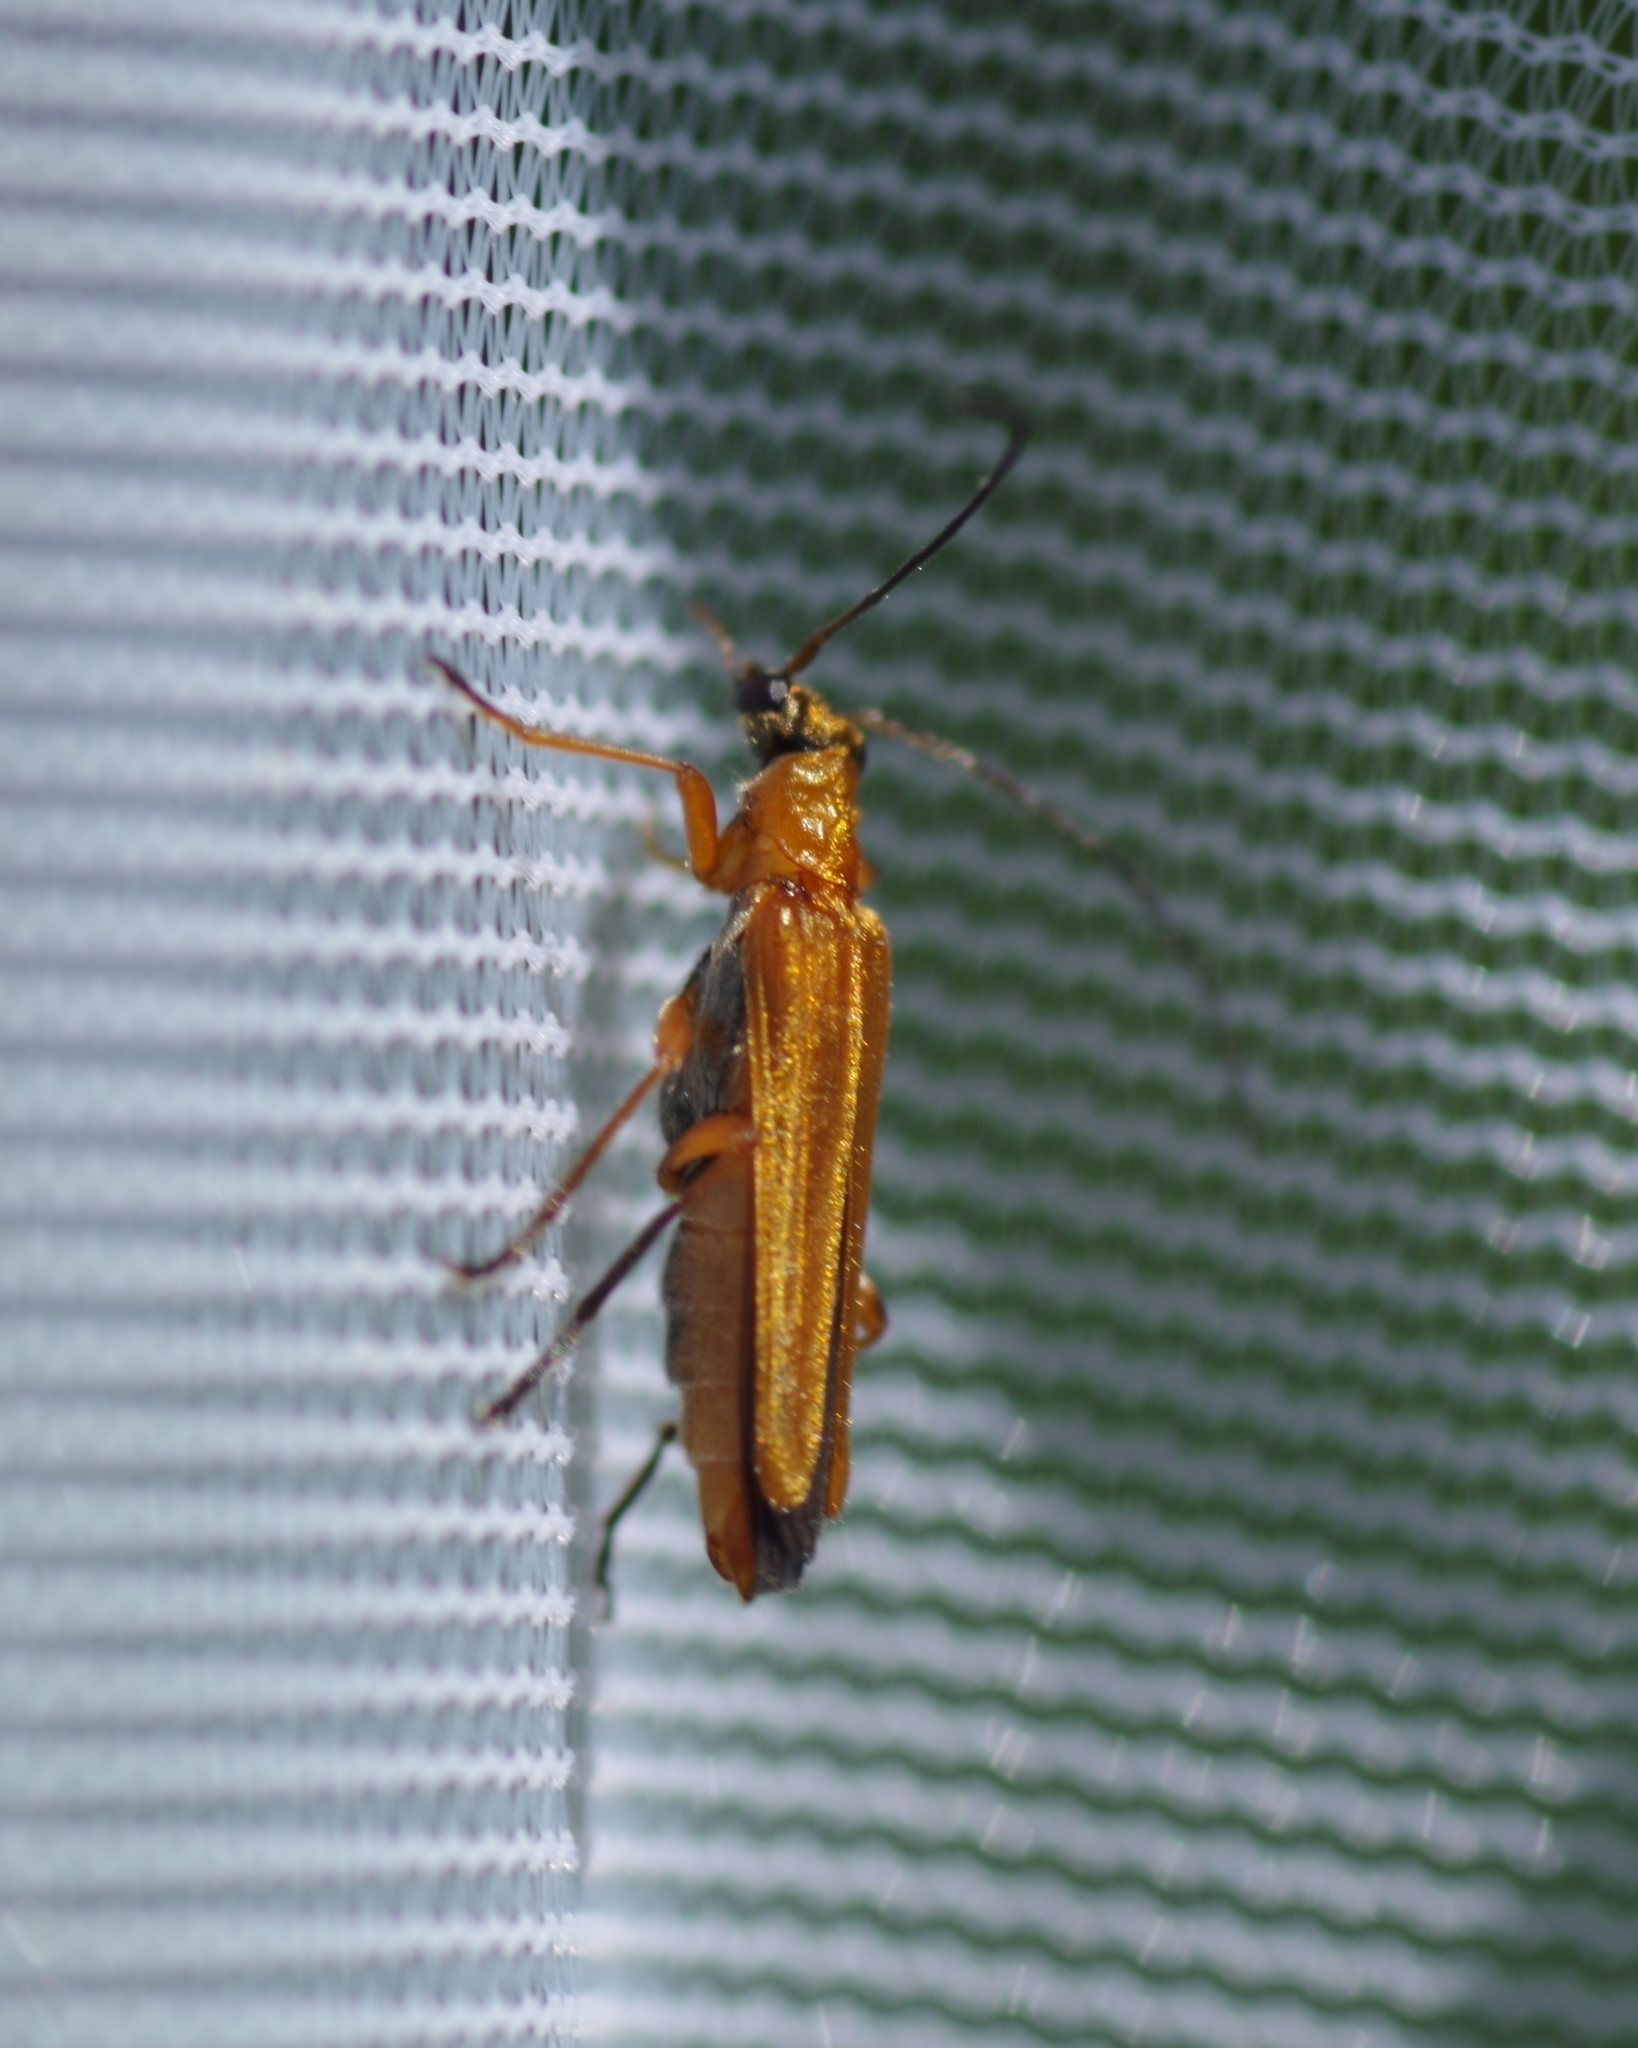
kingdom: Animalia
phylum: Arthropoda
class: Insecta
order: Coleoptera
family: Oedemeridae
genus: Oedemera
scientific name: Oedemera podagrariae
